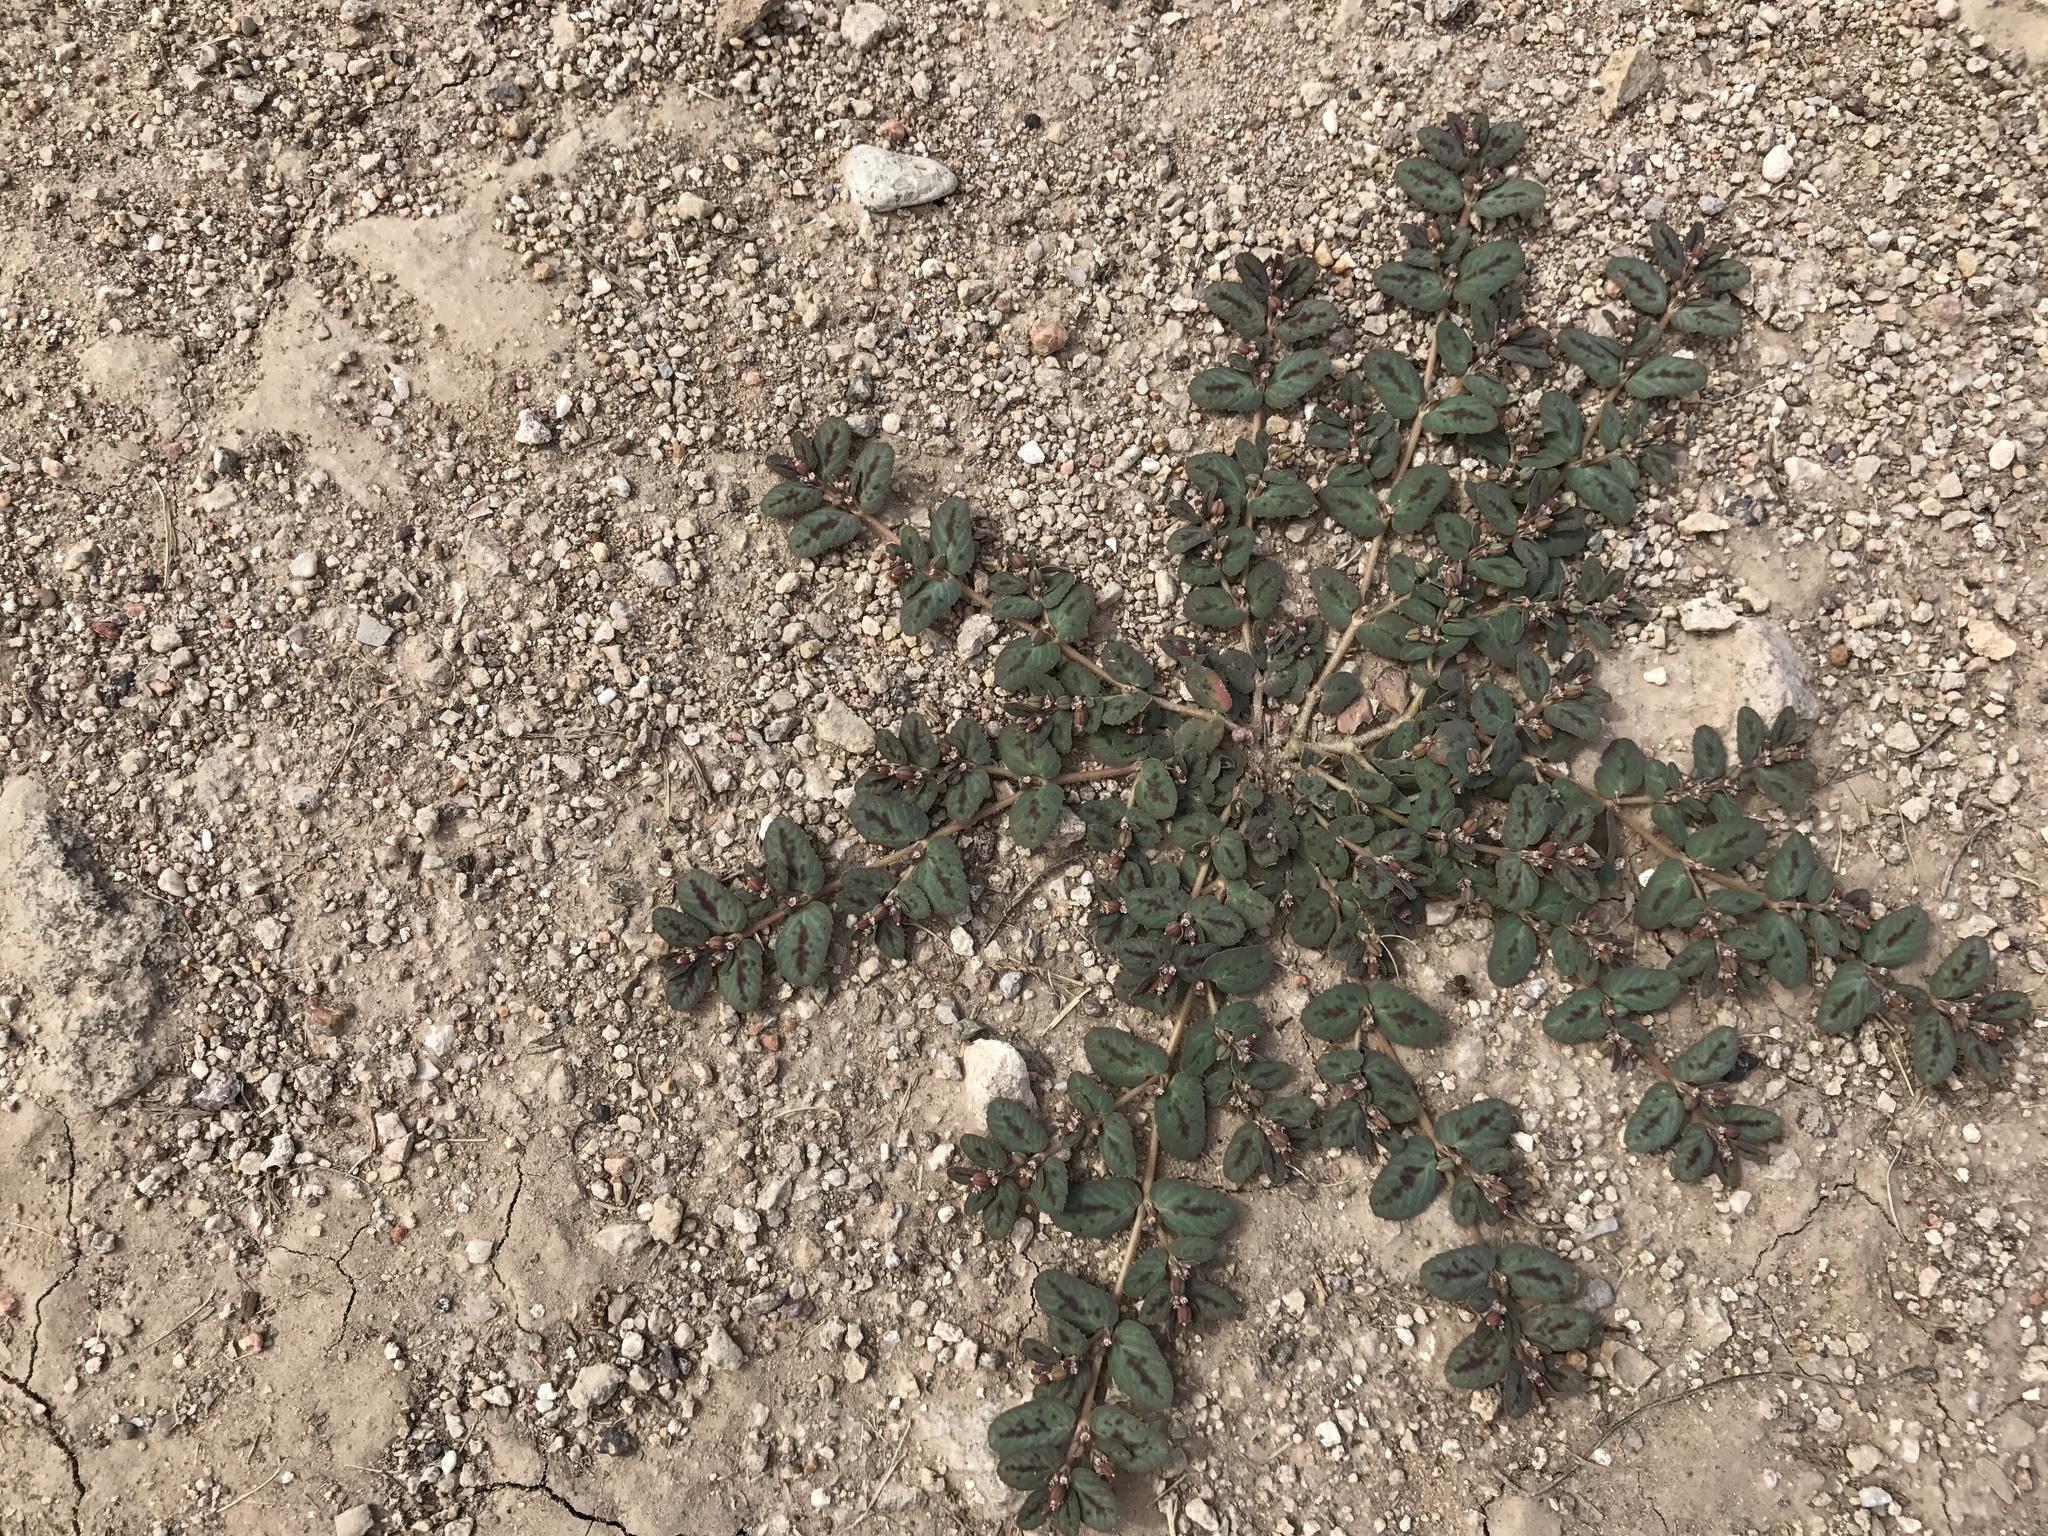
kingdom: Plantae
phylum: Tracheophyta
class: Magnoliopsida
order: Malpighiales
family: Euphorbiaceae
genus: Euphorbia
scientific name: Euphorbia abramsiana
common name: Abram's spurge
